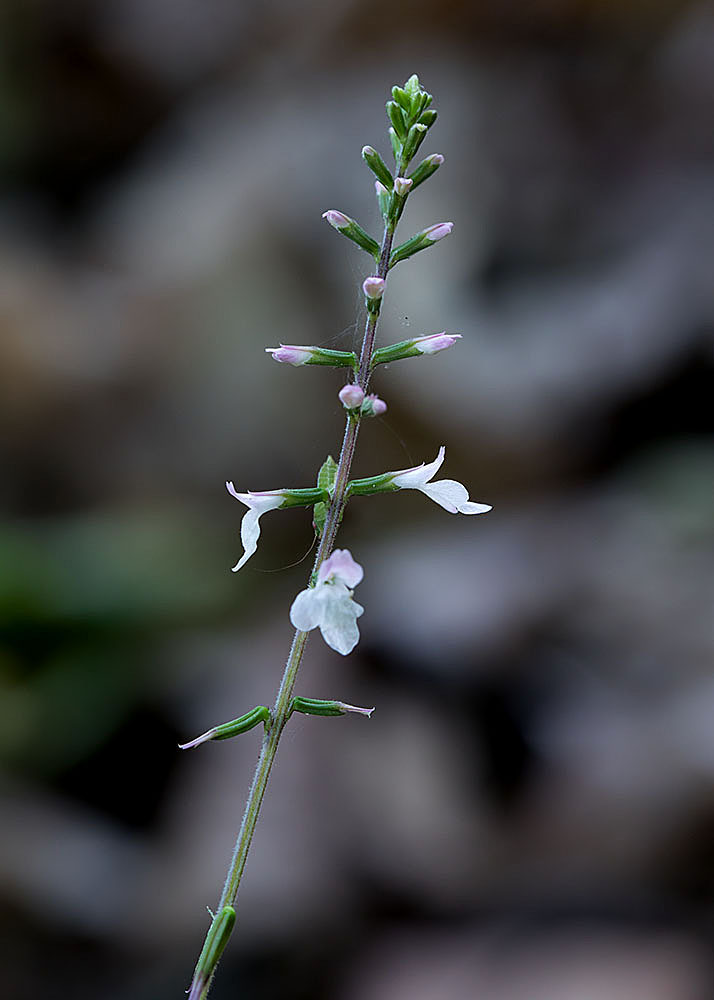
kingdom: Plantae
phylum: Tracheophyta
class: Magnoliopsida
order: Lamiales
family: Phrymaceae
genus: Phryma
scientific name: Phryma leptostachya
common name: American lopseed
